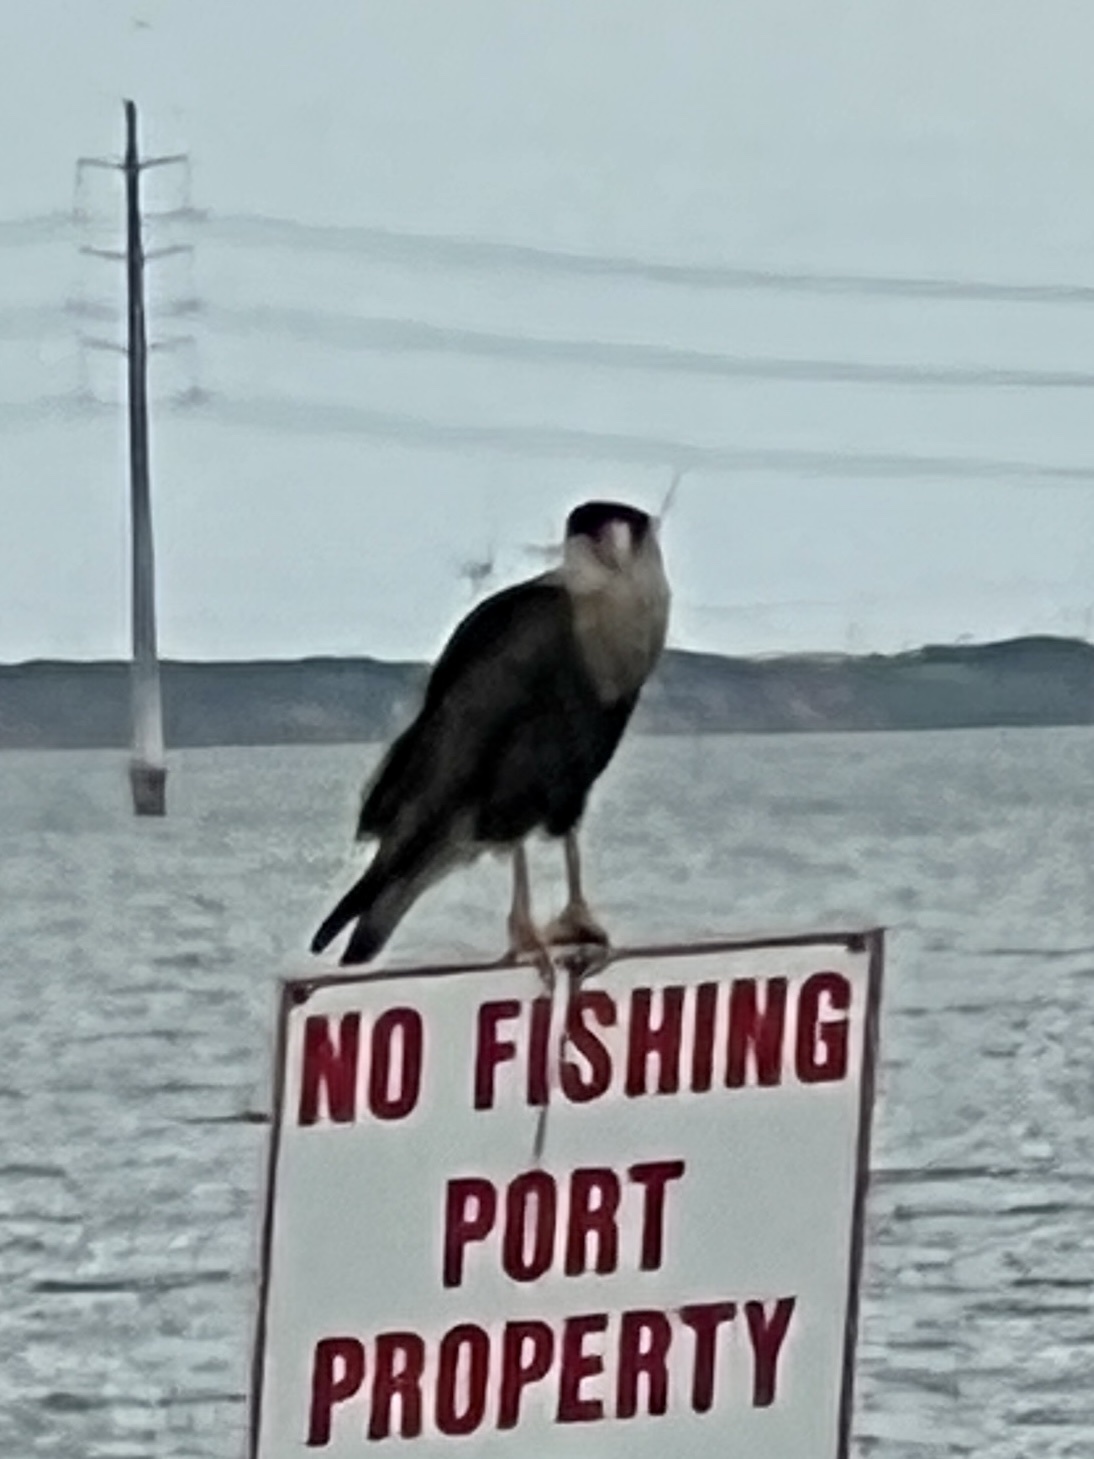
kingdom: Animalia
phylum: Chordata
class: Aves
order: Falconiformes
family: Falconidae
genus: Caracara
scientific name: Caracara plancus
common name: Southern caracara
